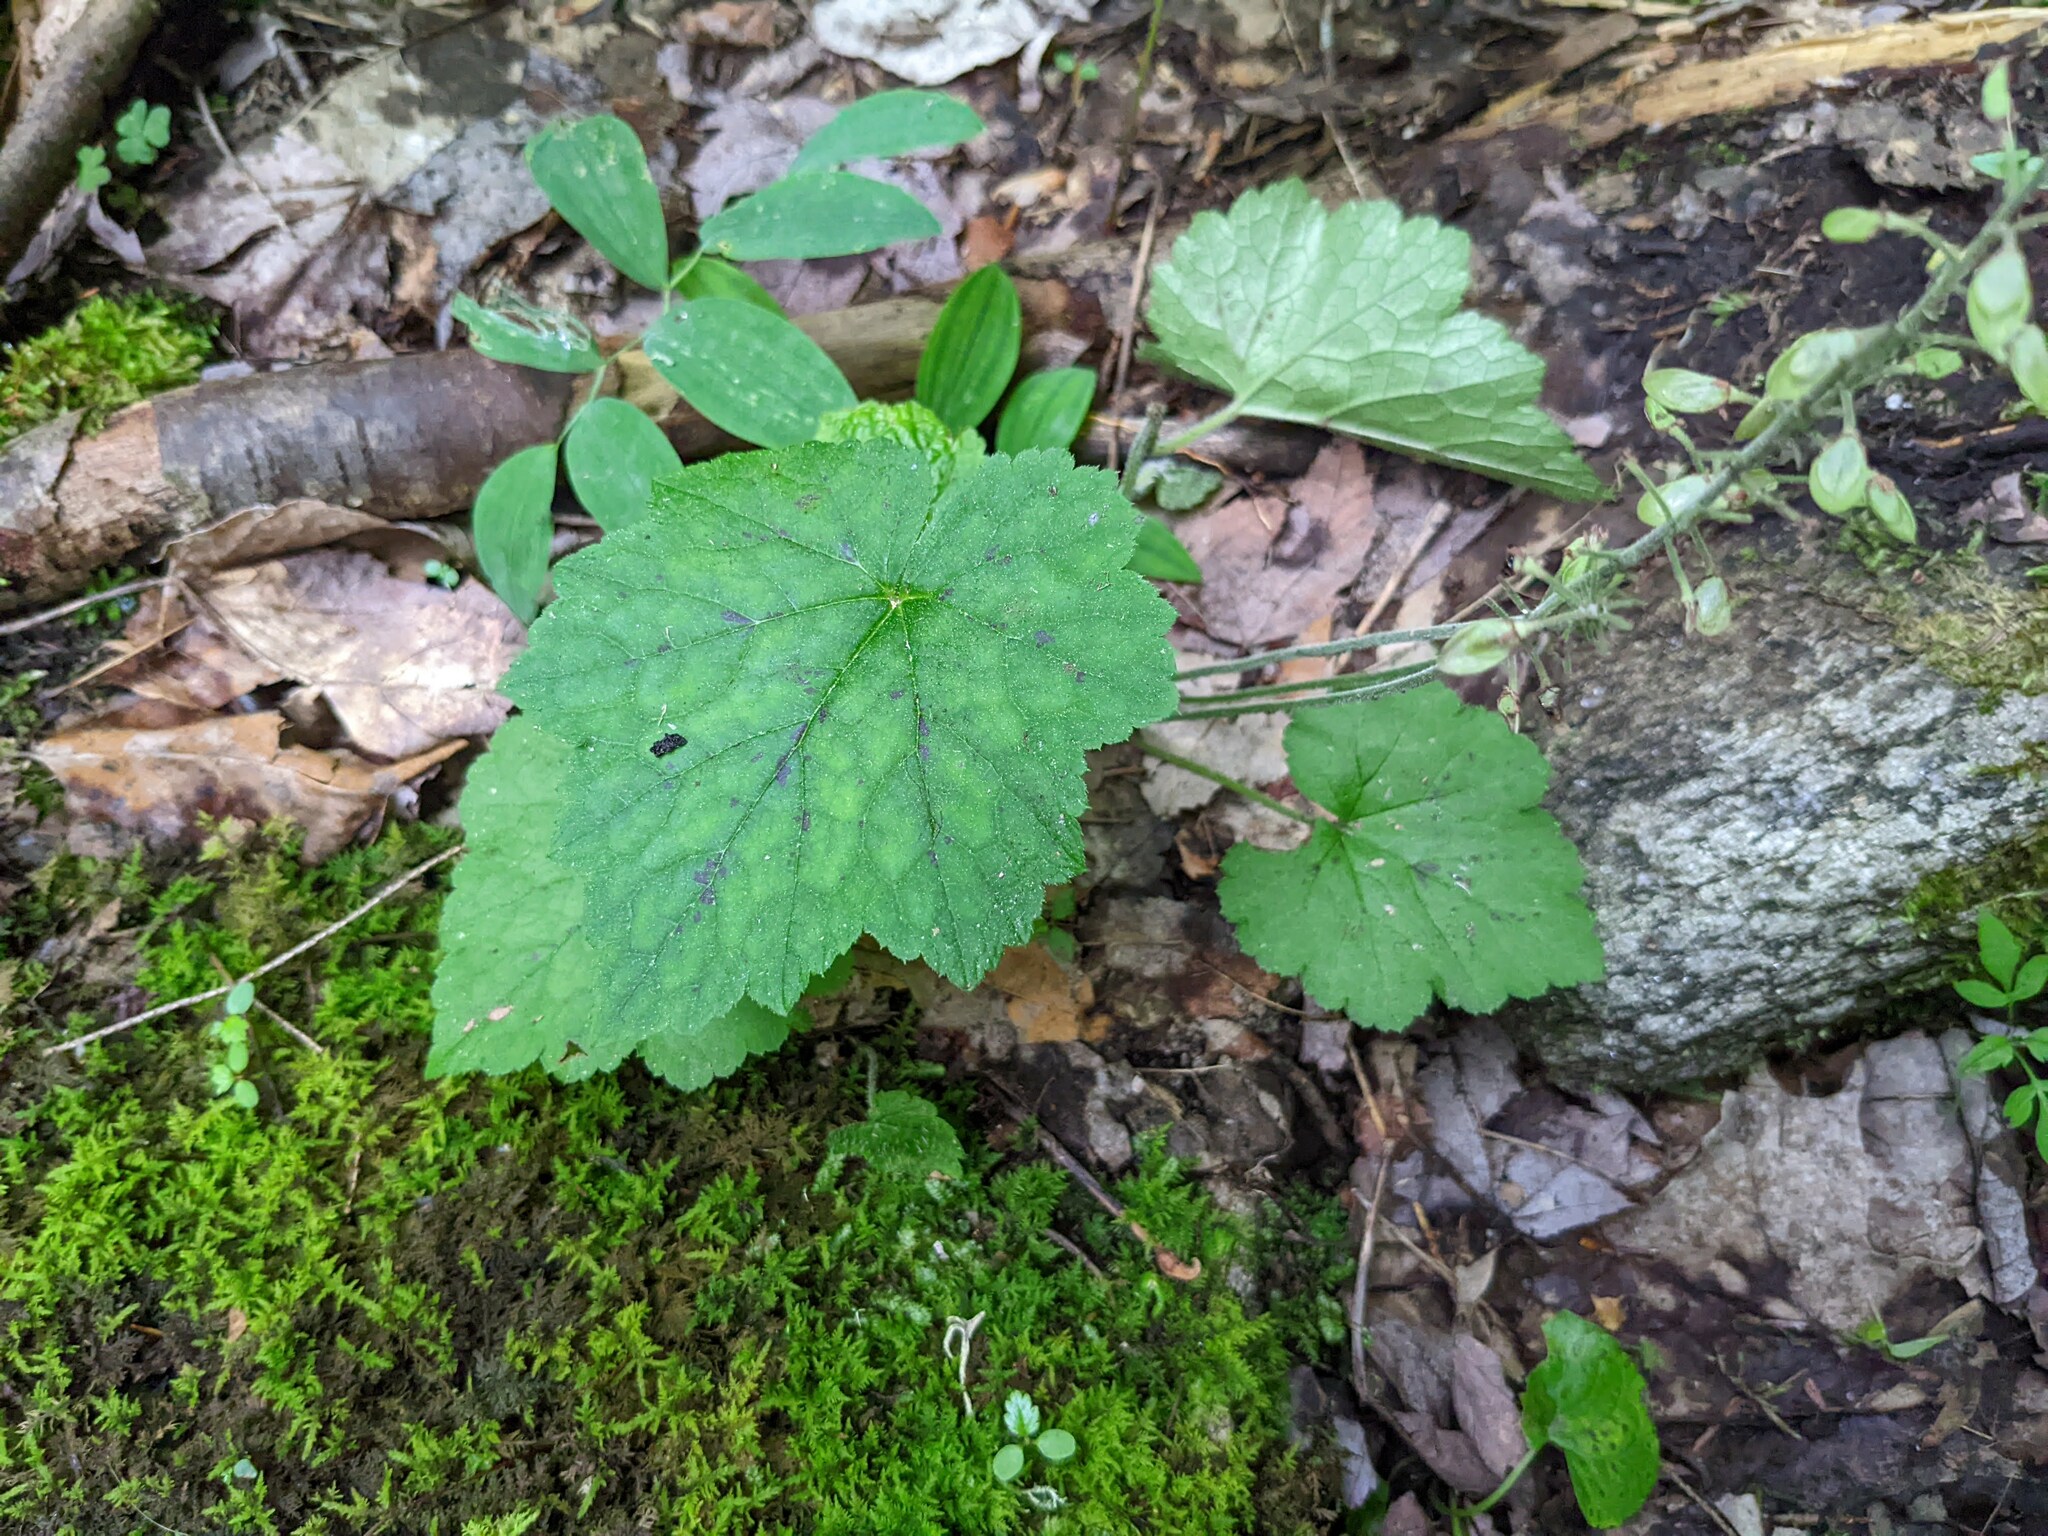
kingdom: Plantae
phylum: Tracheophyta
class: Magnoliopsida
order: Saxifragales
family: Saxifragaceae
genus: Tiarella
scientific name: Tiarella stolonifera
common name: Stoloniferous foamflower
